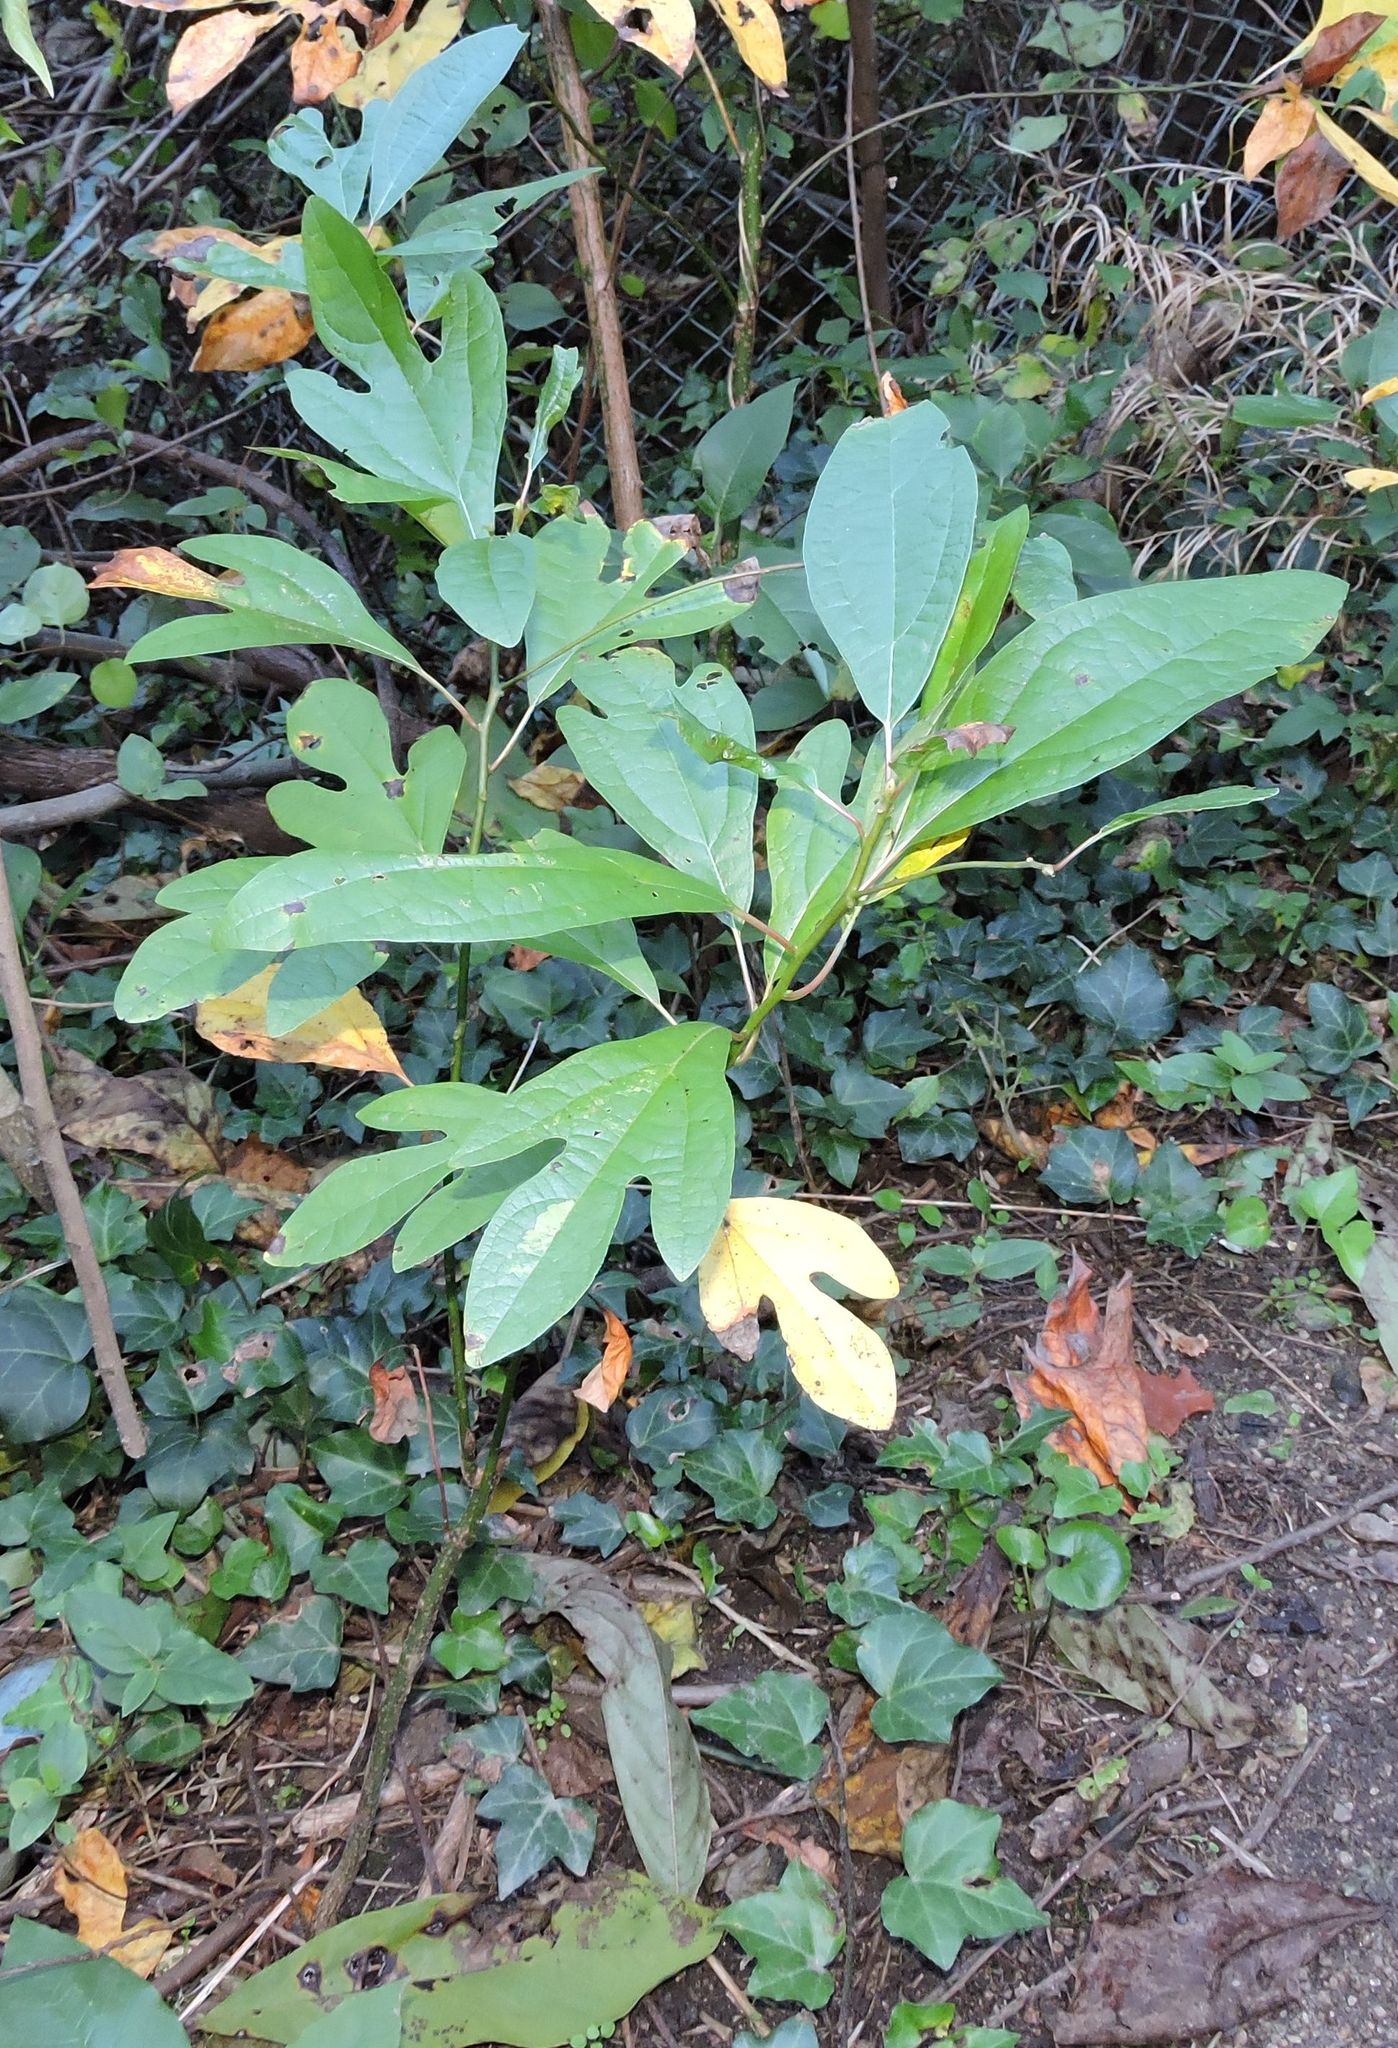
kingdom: Plantae
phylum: Tracheophyta
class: Magnoliopsida
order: Laurales
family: Lauraceae
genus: Sassafras
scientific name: Sassafras albidum
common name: Sassafras
